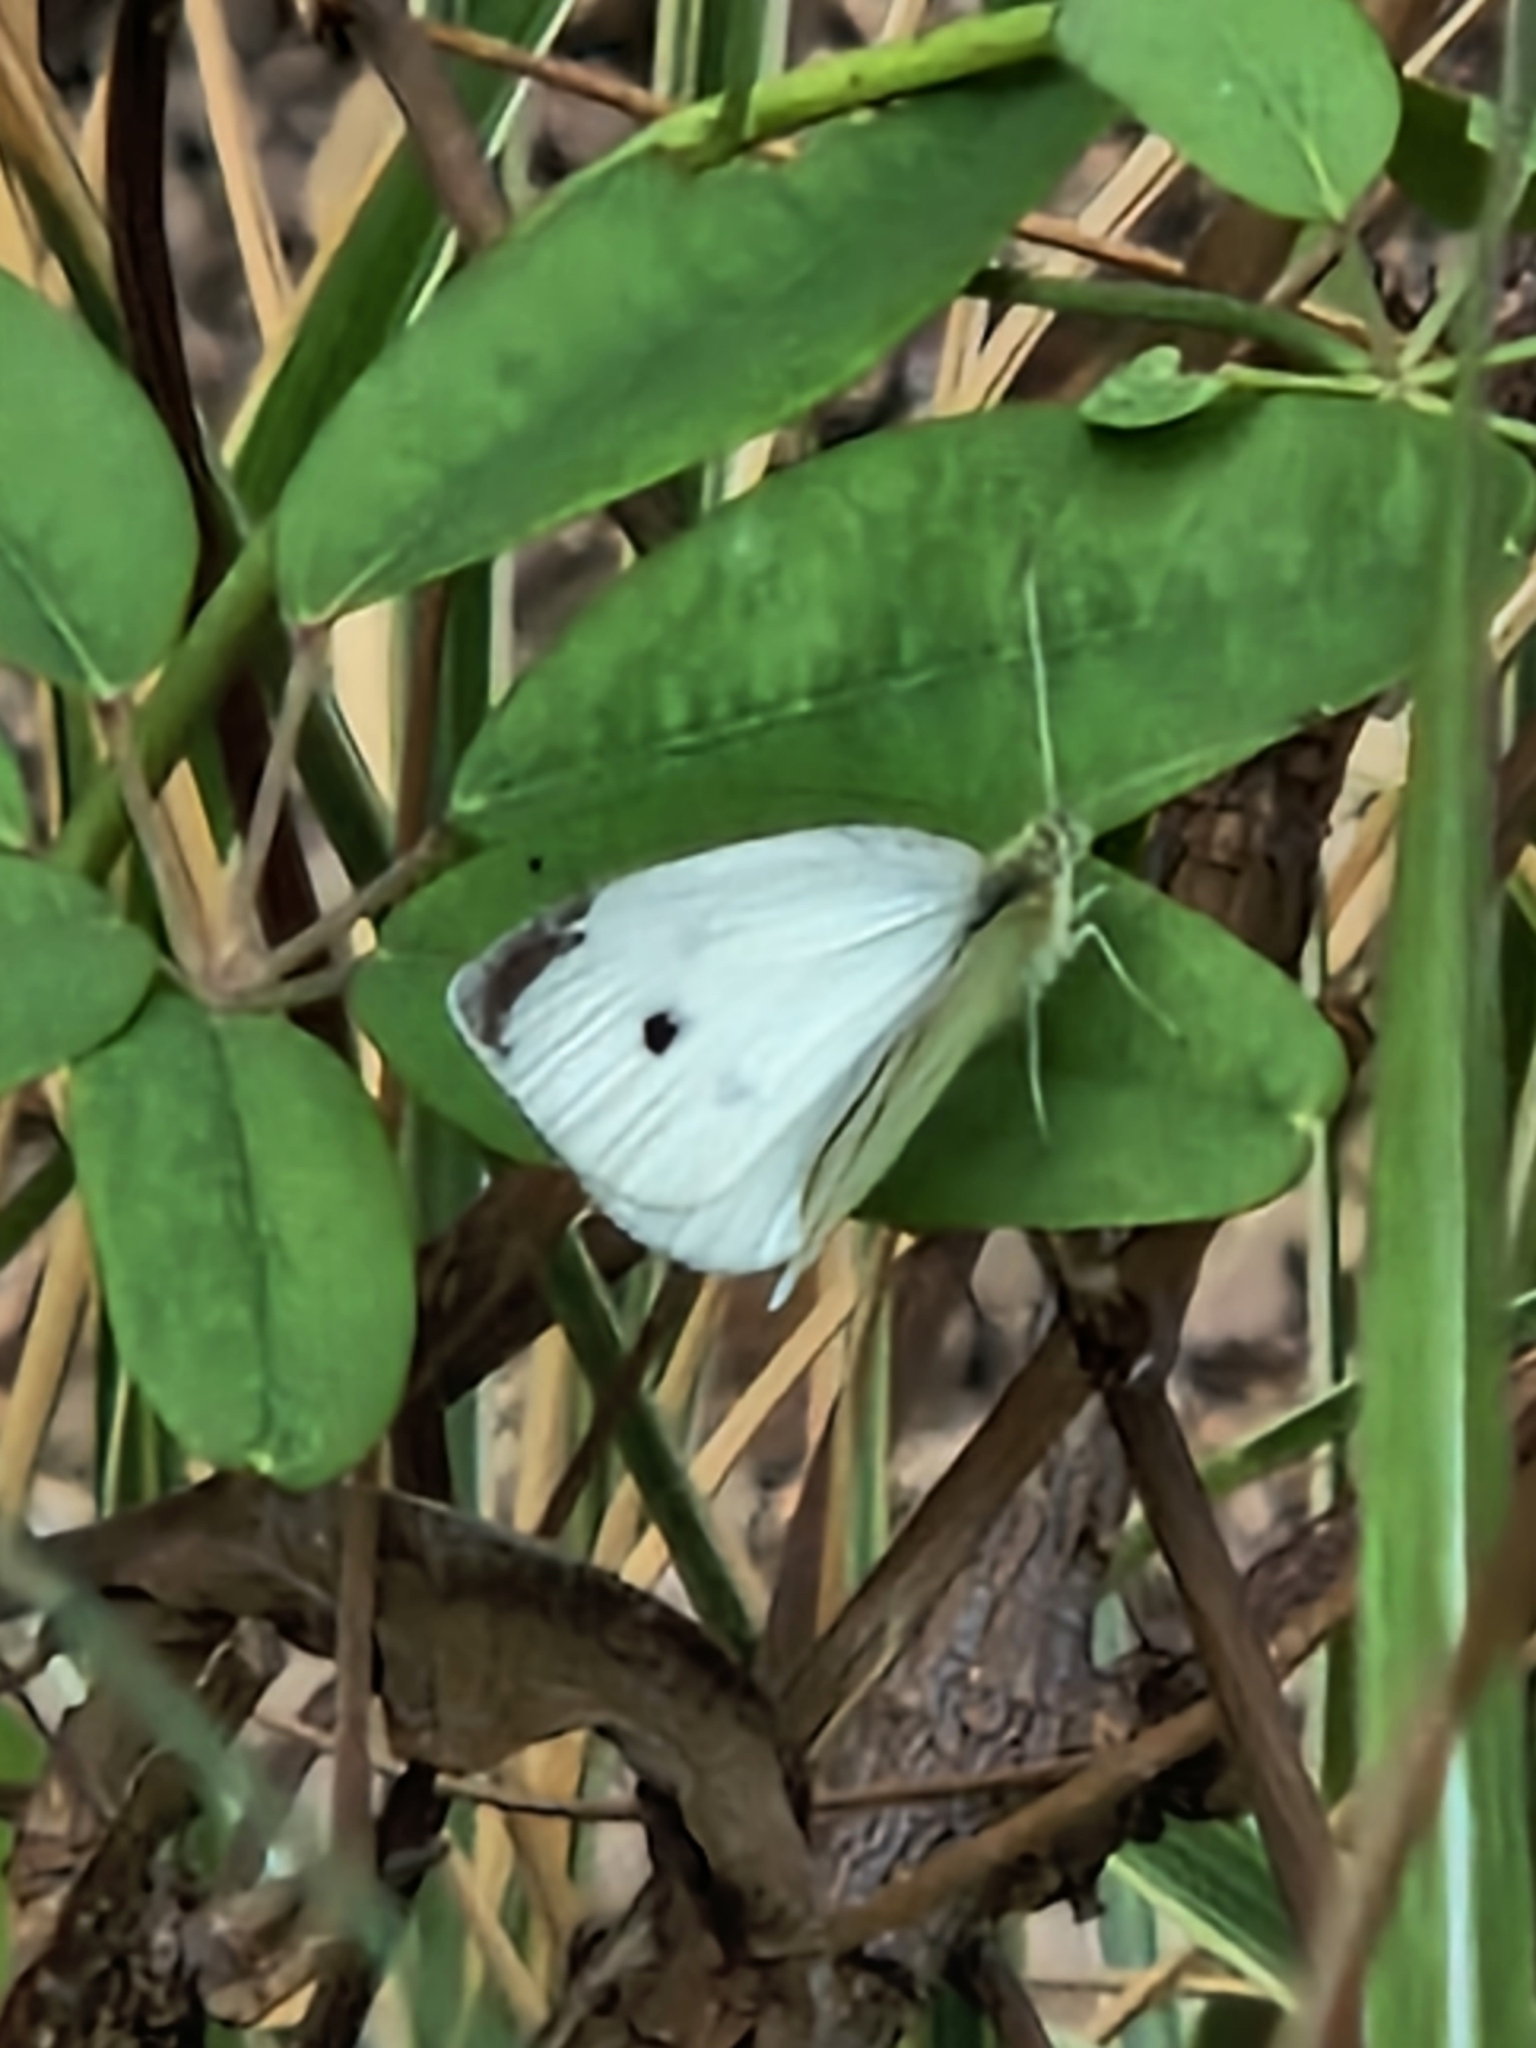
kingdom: Animalia
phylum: Arthropoda
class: Insecta
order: Lepidoptera
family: Pieridae
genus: Pieris
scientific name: Pieris rapae
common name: Small white
